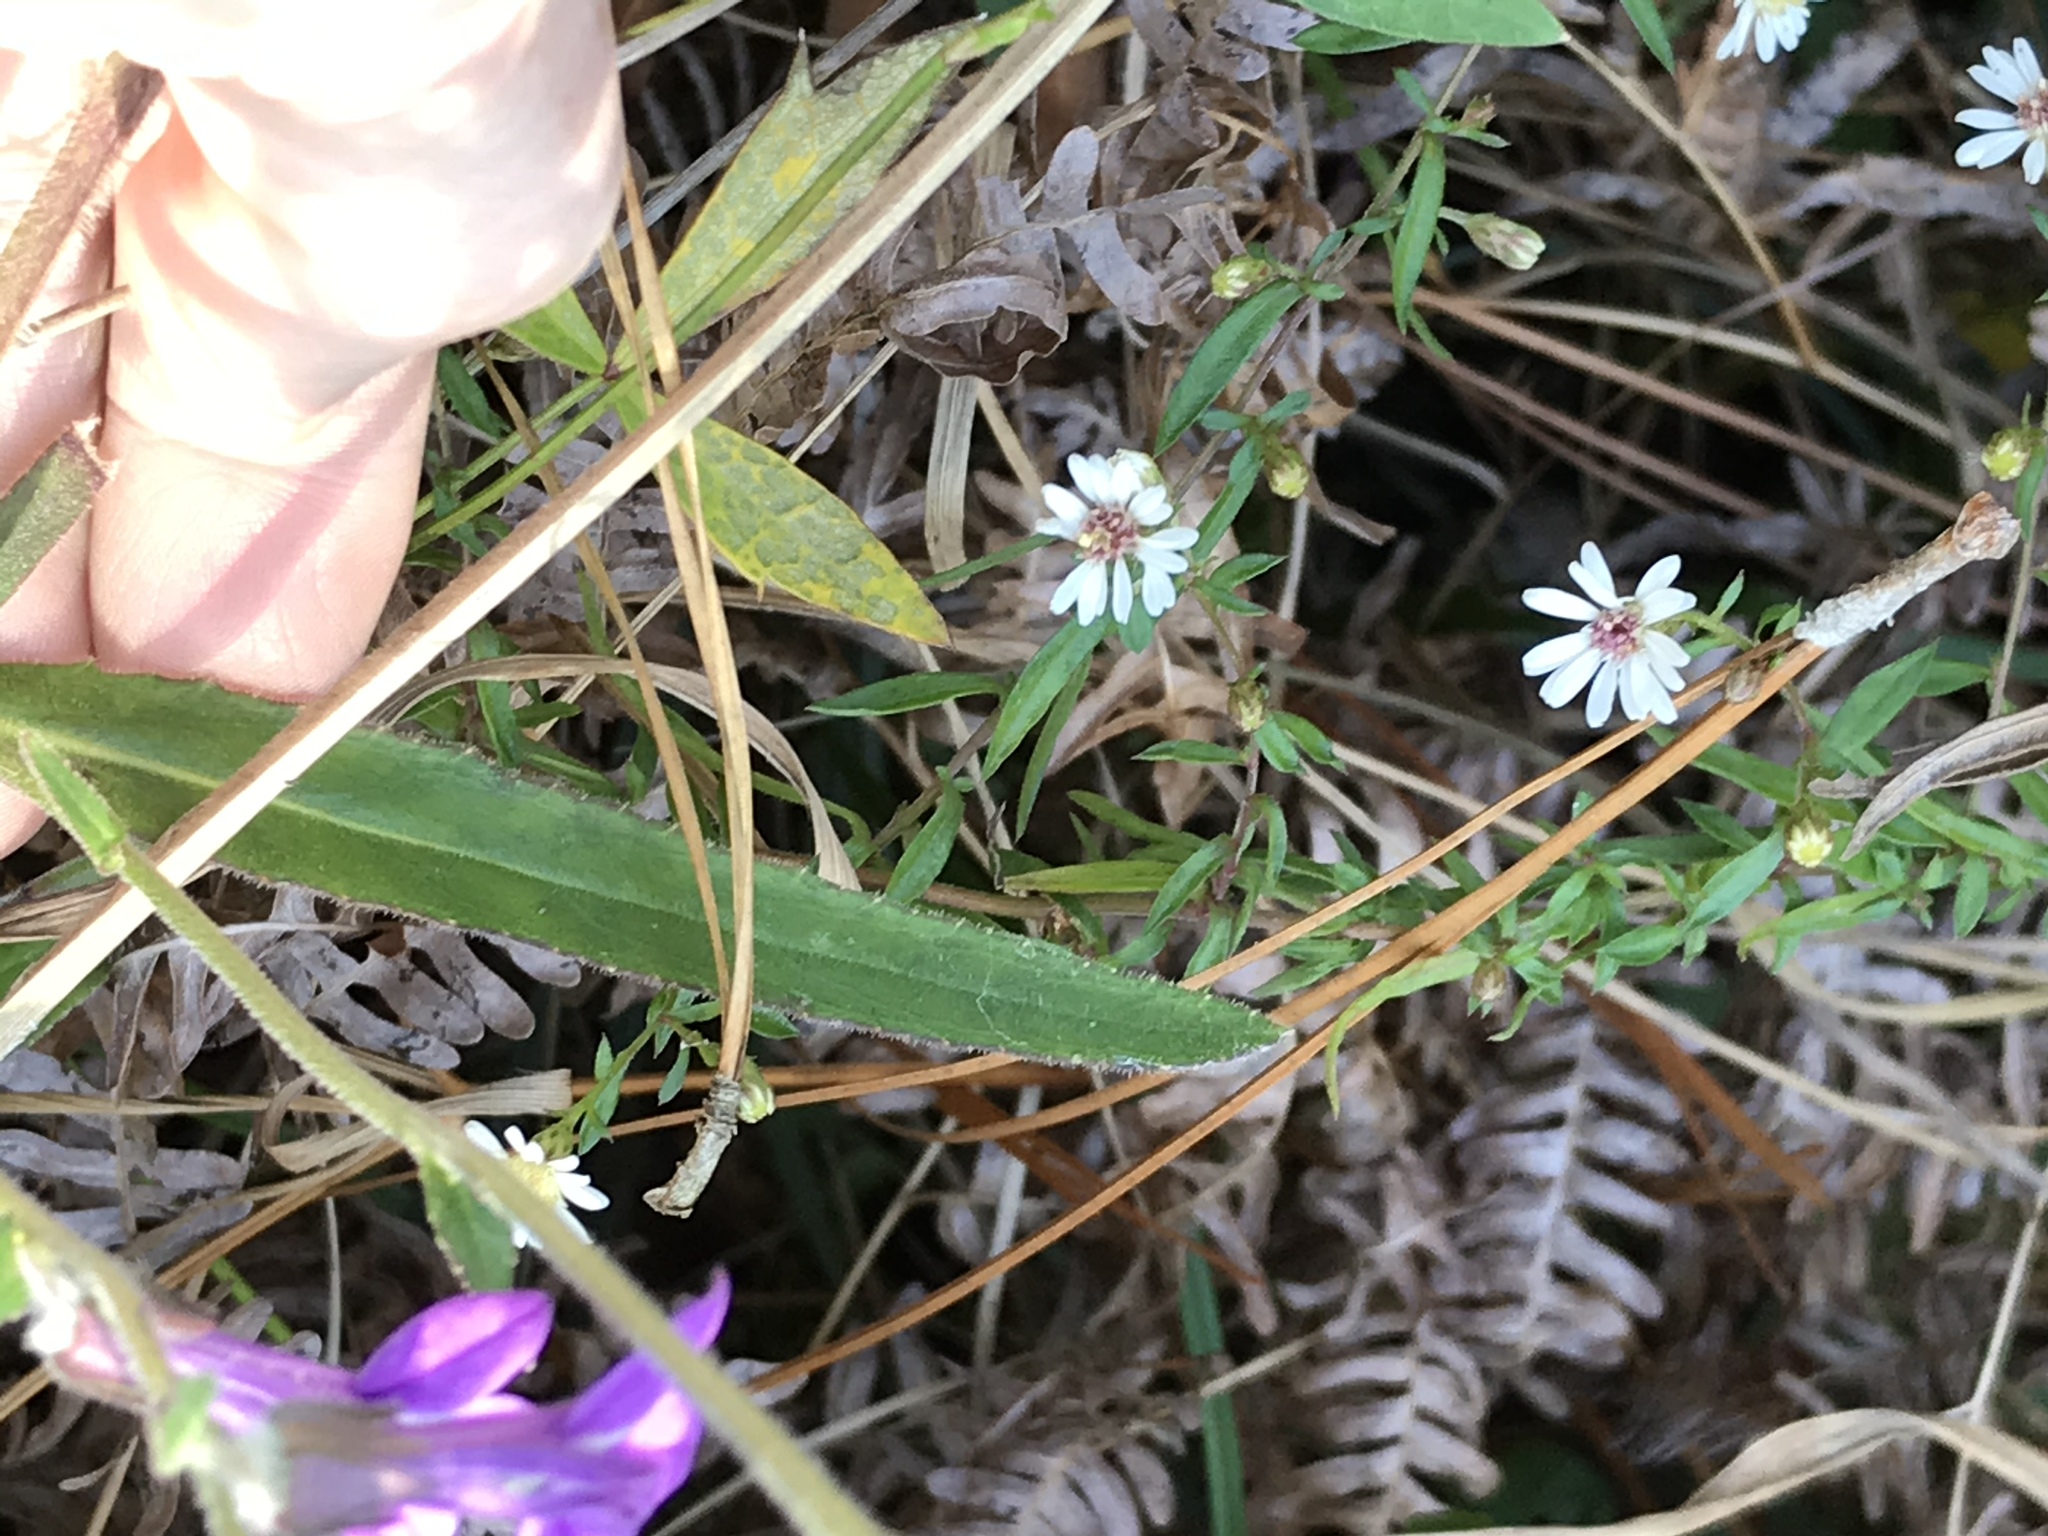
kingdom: Plantae
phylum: Tracheophyta
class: Magnoliopsida
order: Asterales
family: Campanulaceae
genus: Lobelia
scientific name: Lobelia reverchonii
